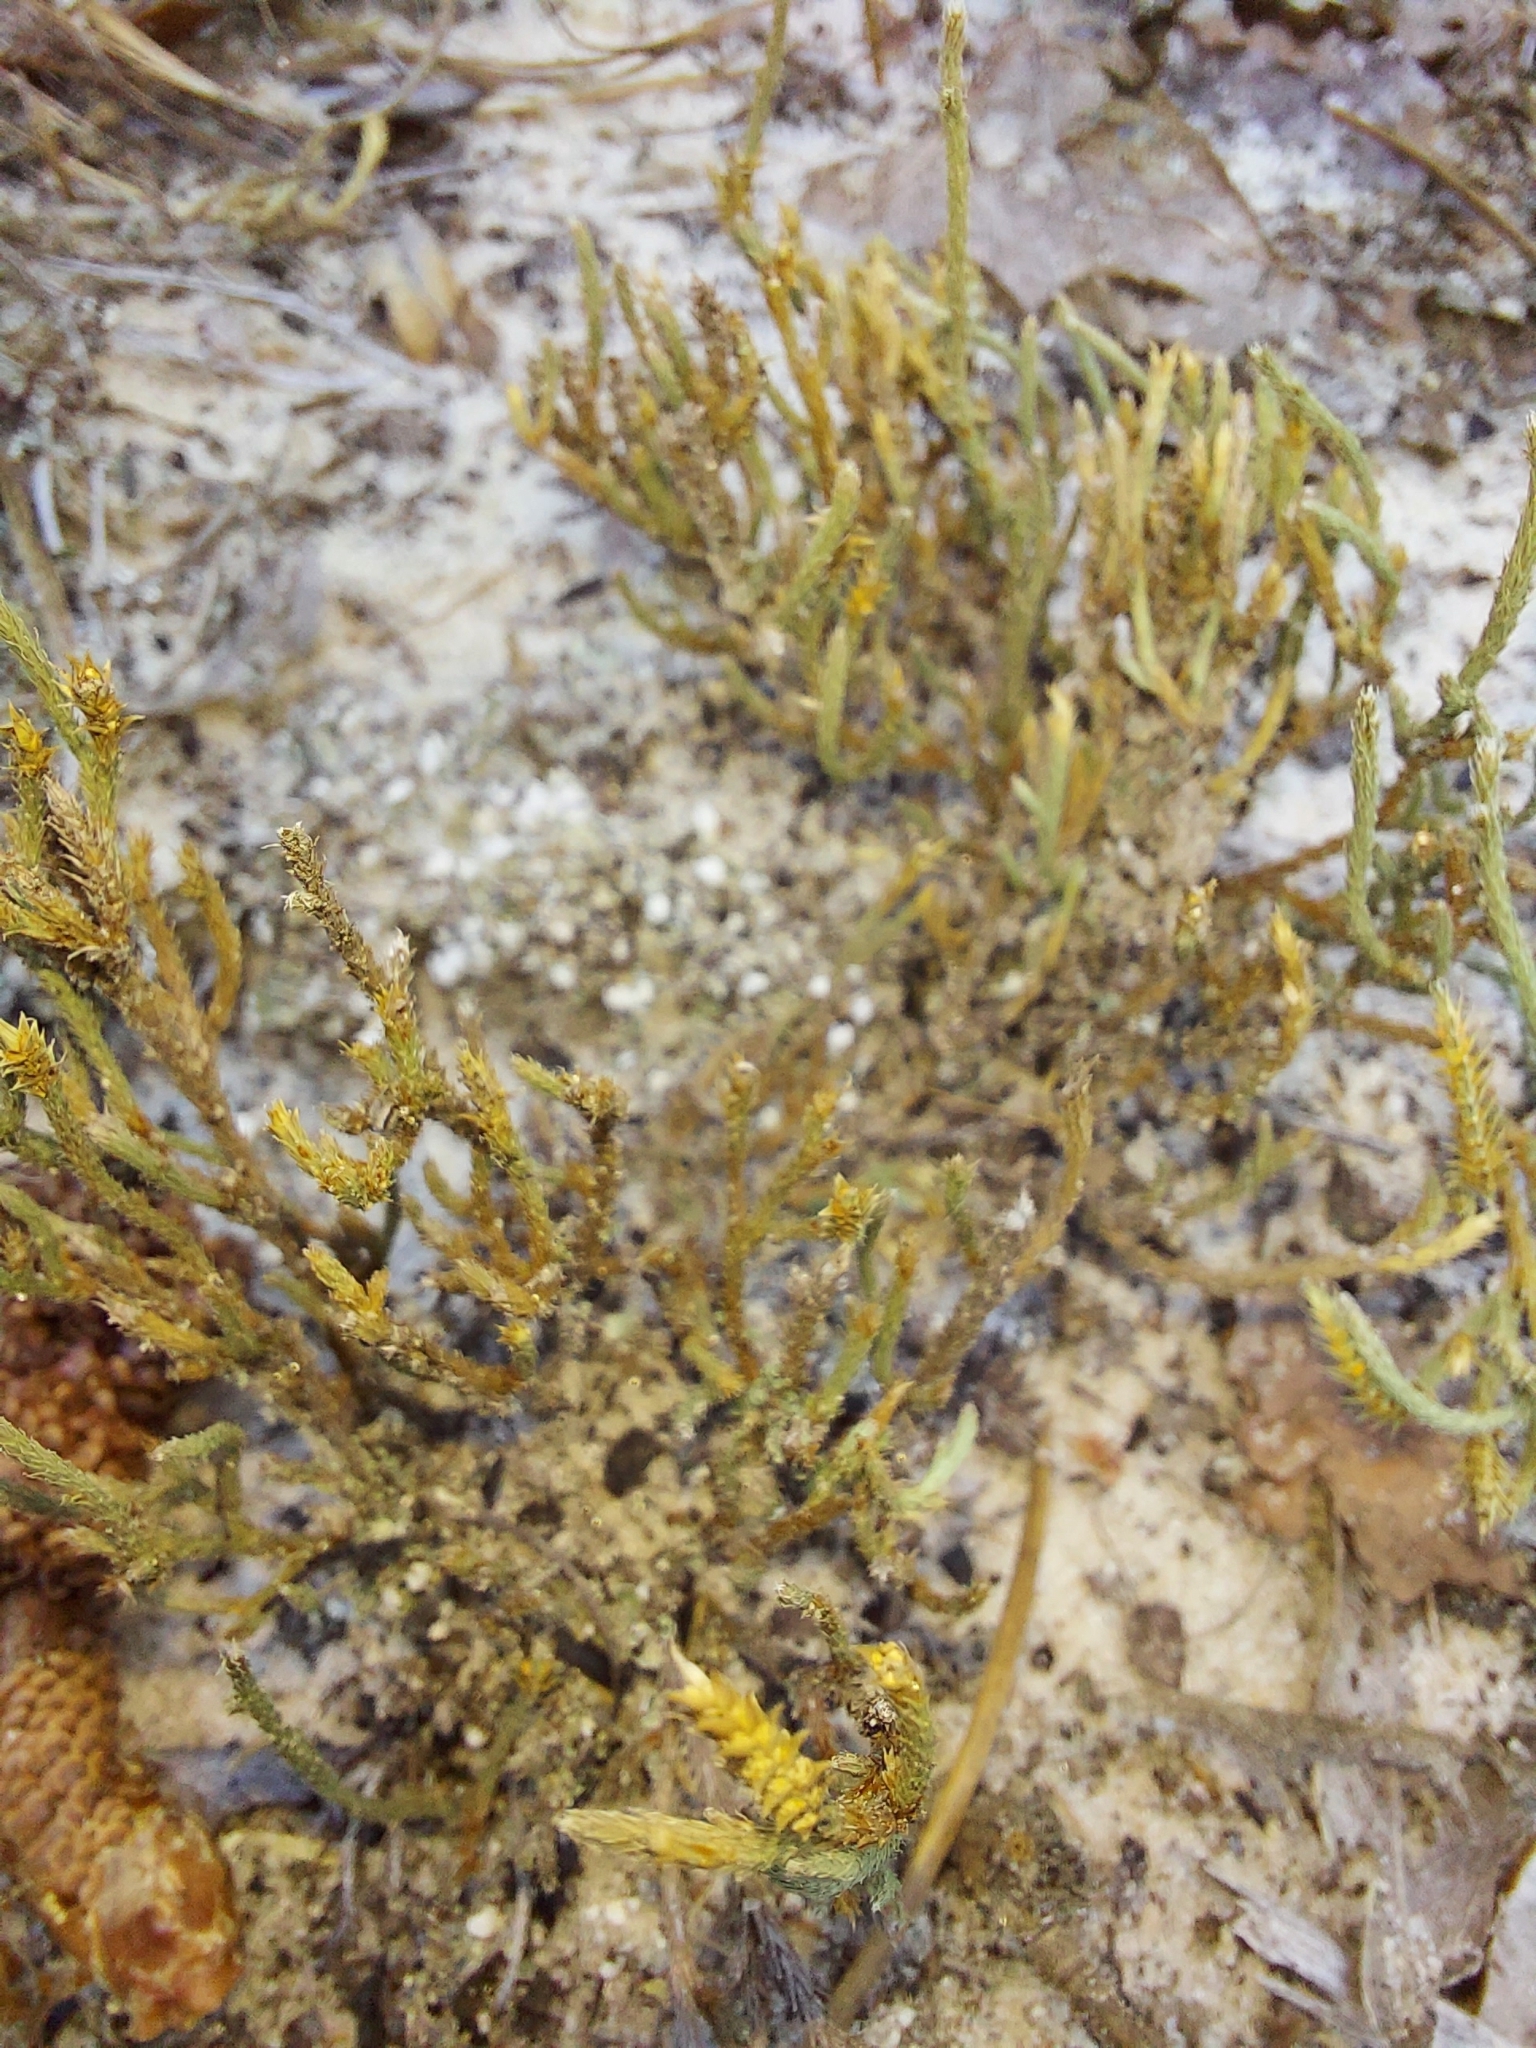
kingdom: Plantae
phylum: Tracheophyta
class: Lycopodiopsida
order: Selaginellales
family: Selaginellaceae
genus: Selaginella
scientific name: Selaginella arenicola
